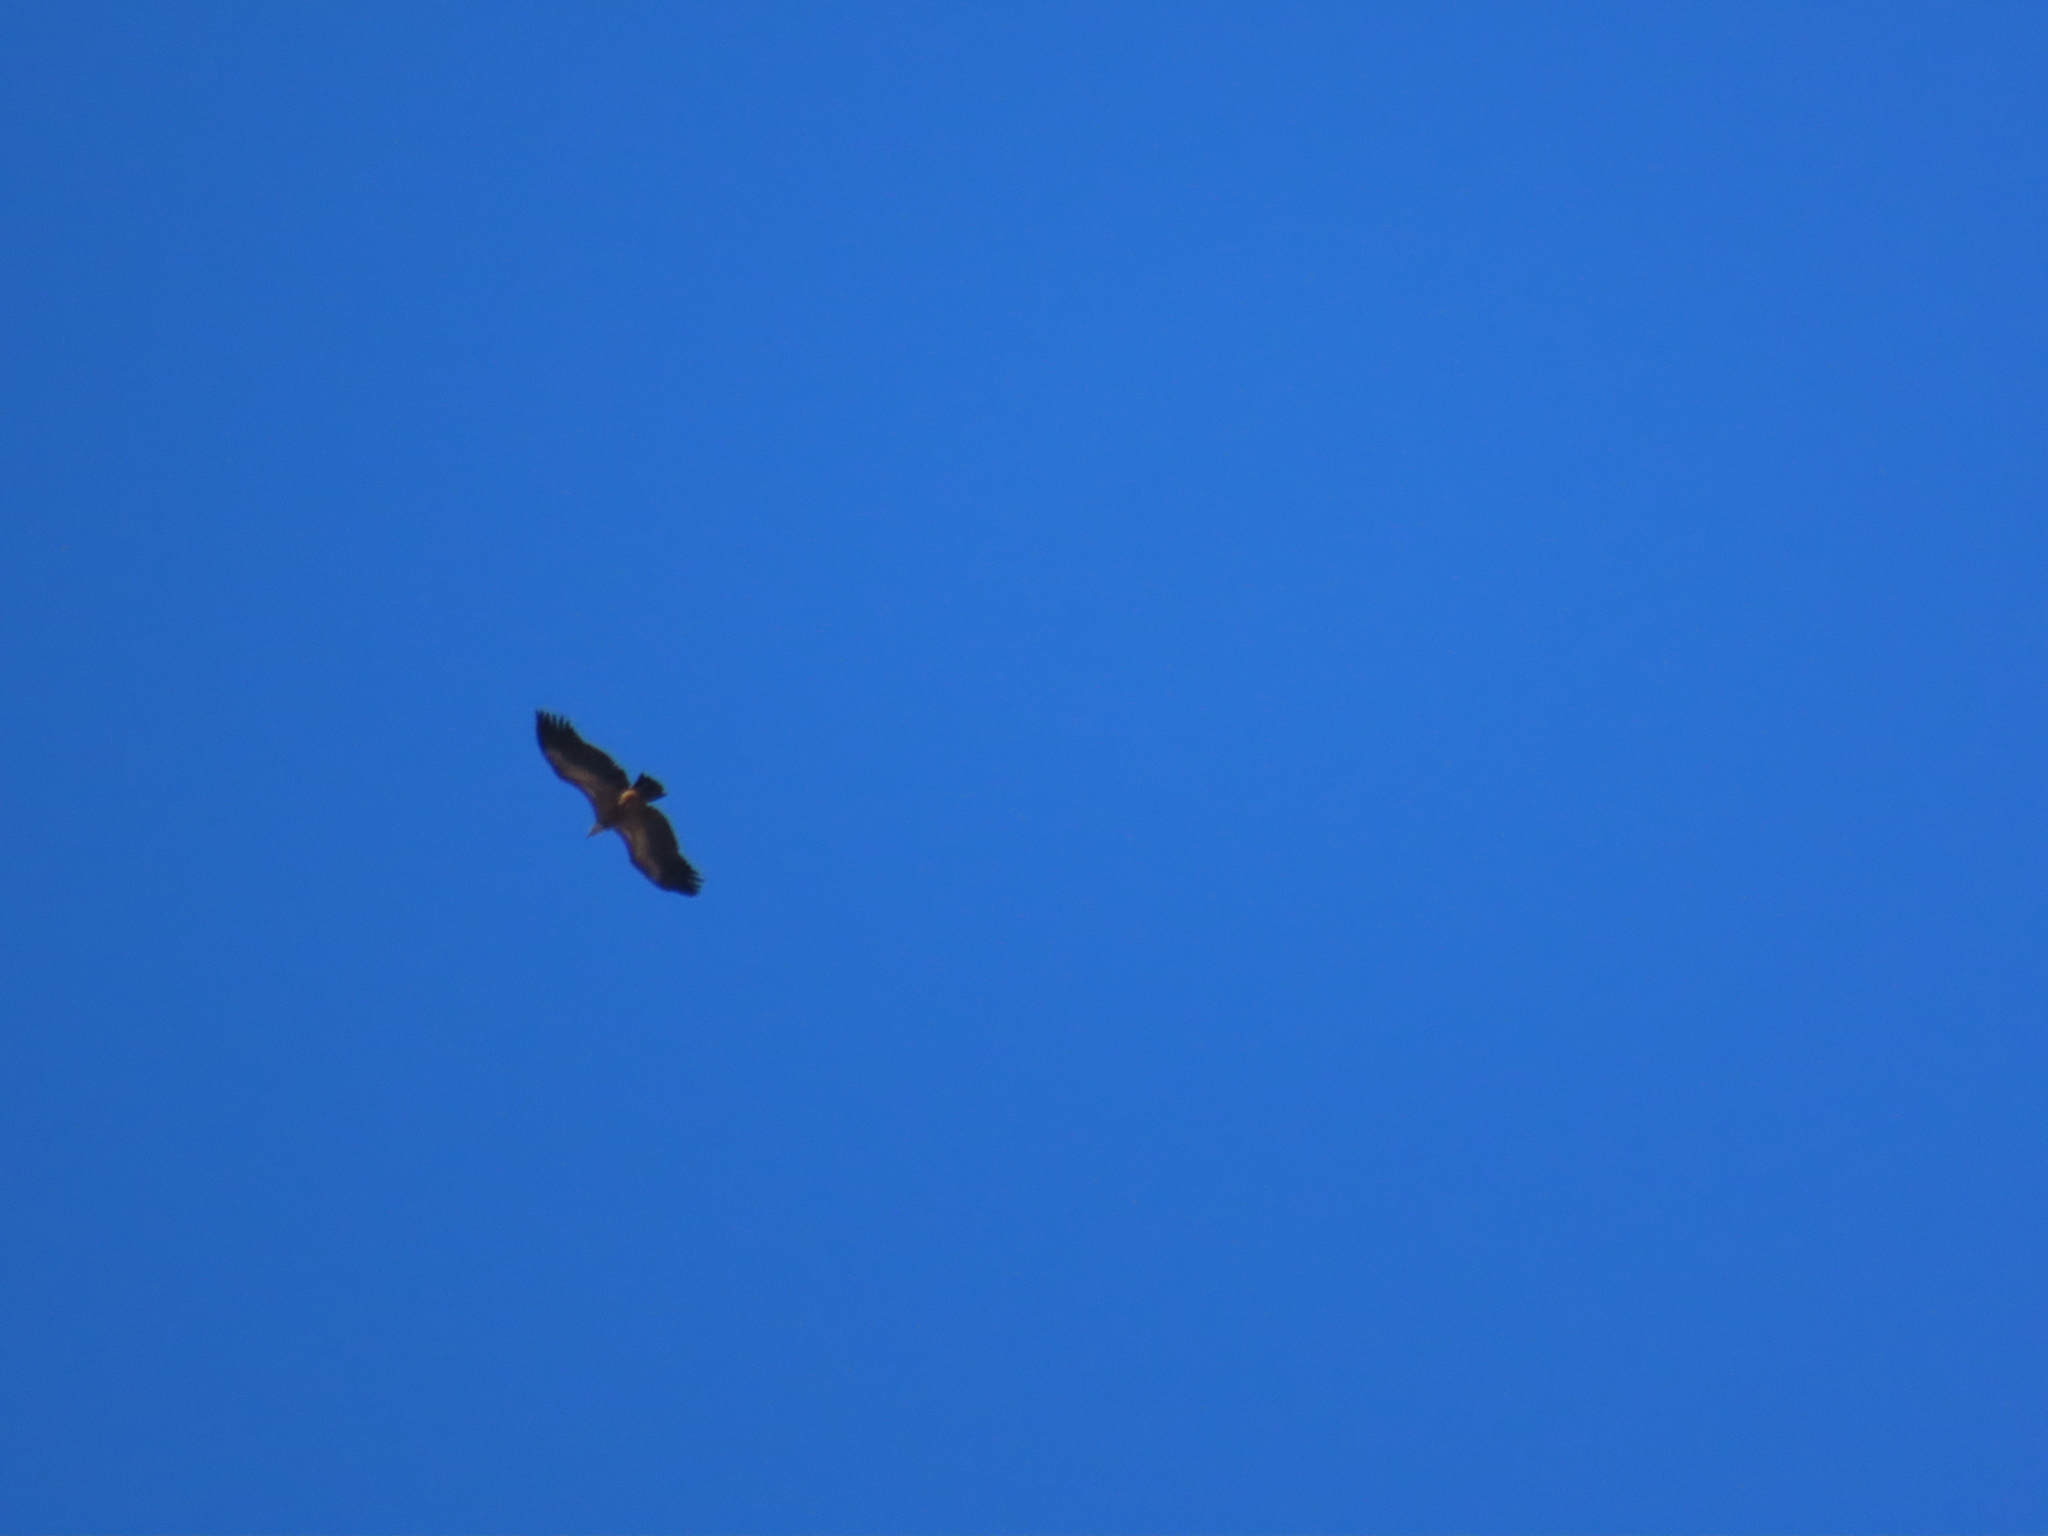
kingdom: Animalia
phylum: Chordata
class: Aves
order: Accipitriformes
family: Accipitridae
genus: Gyps
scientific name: Gyps fulvus
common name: Griffon vulture
